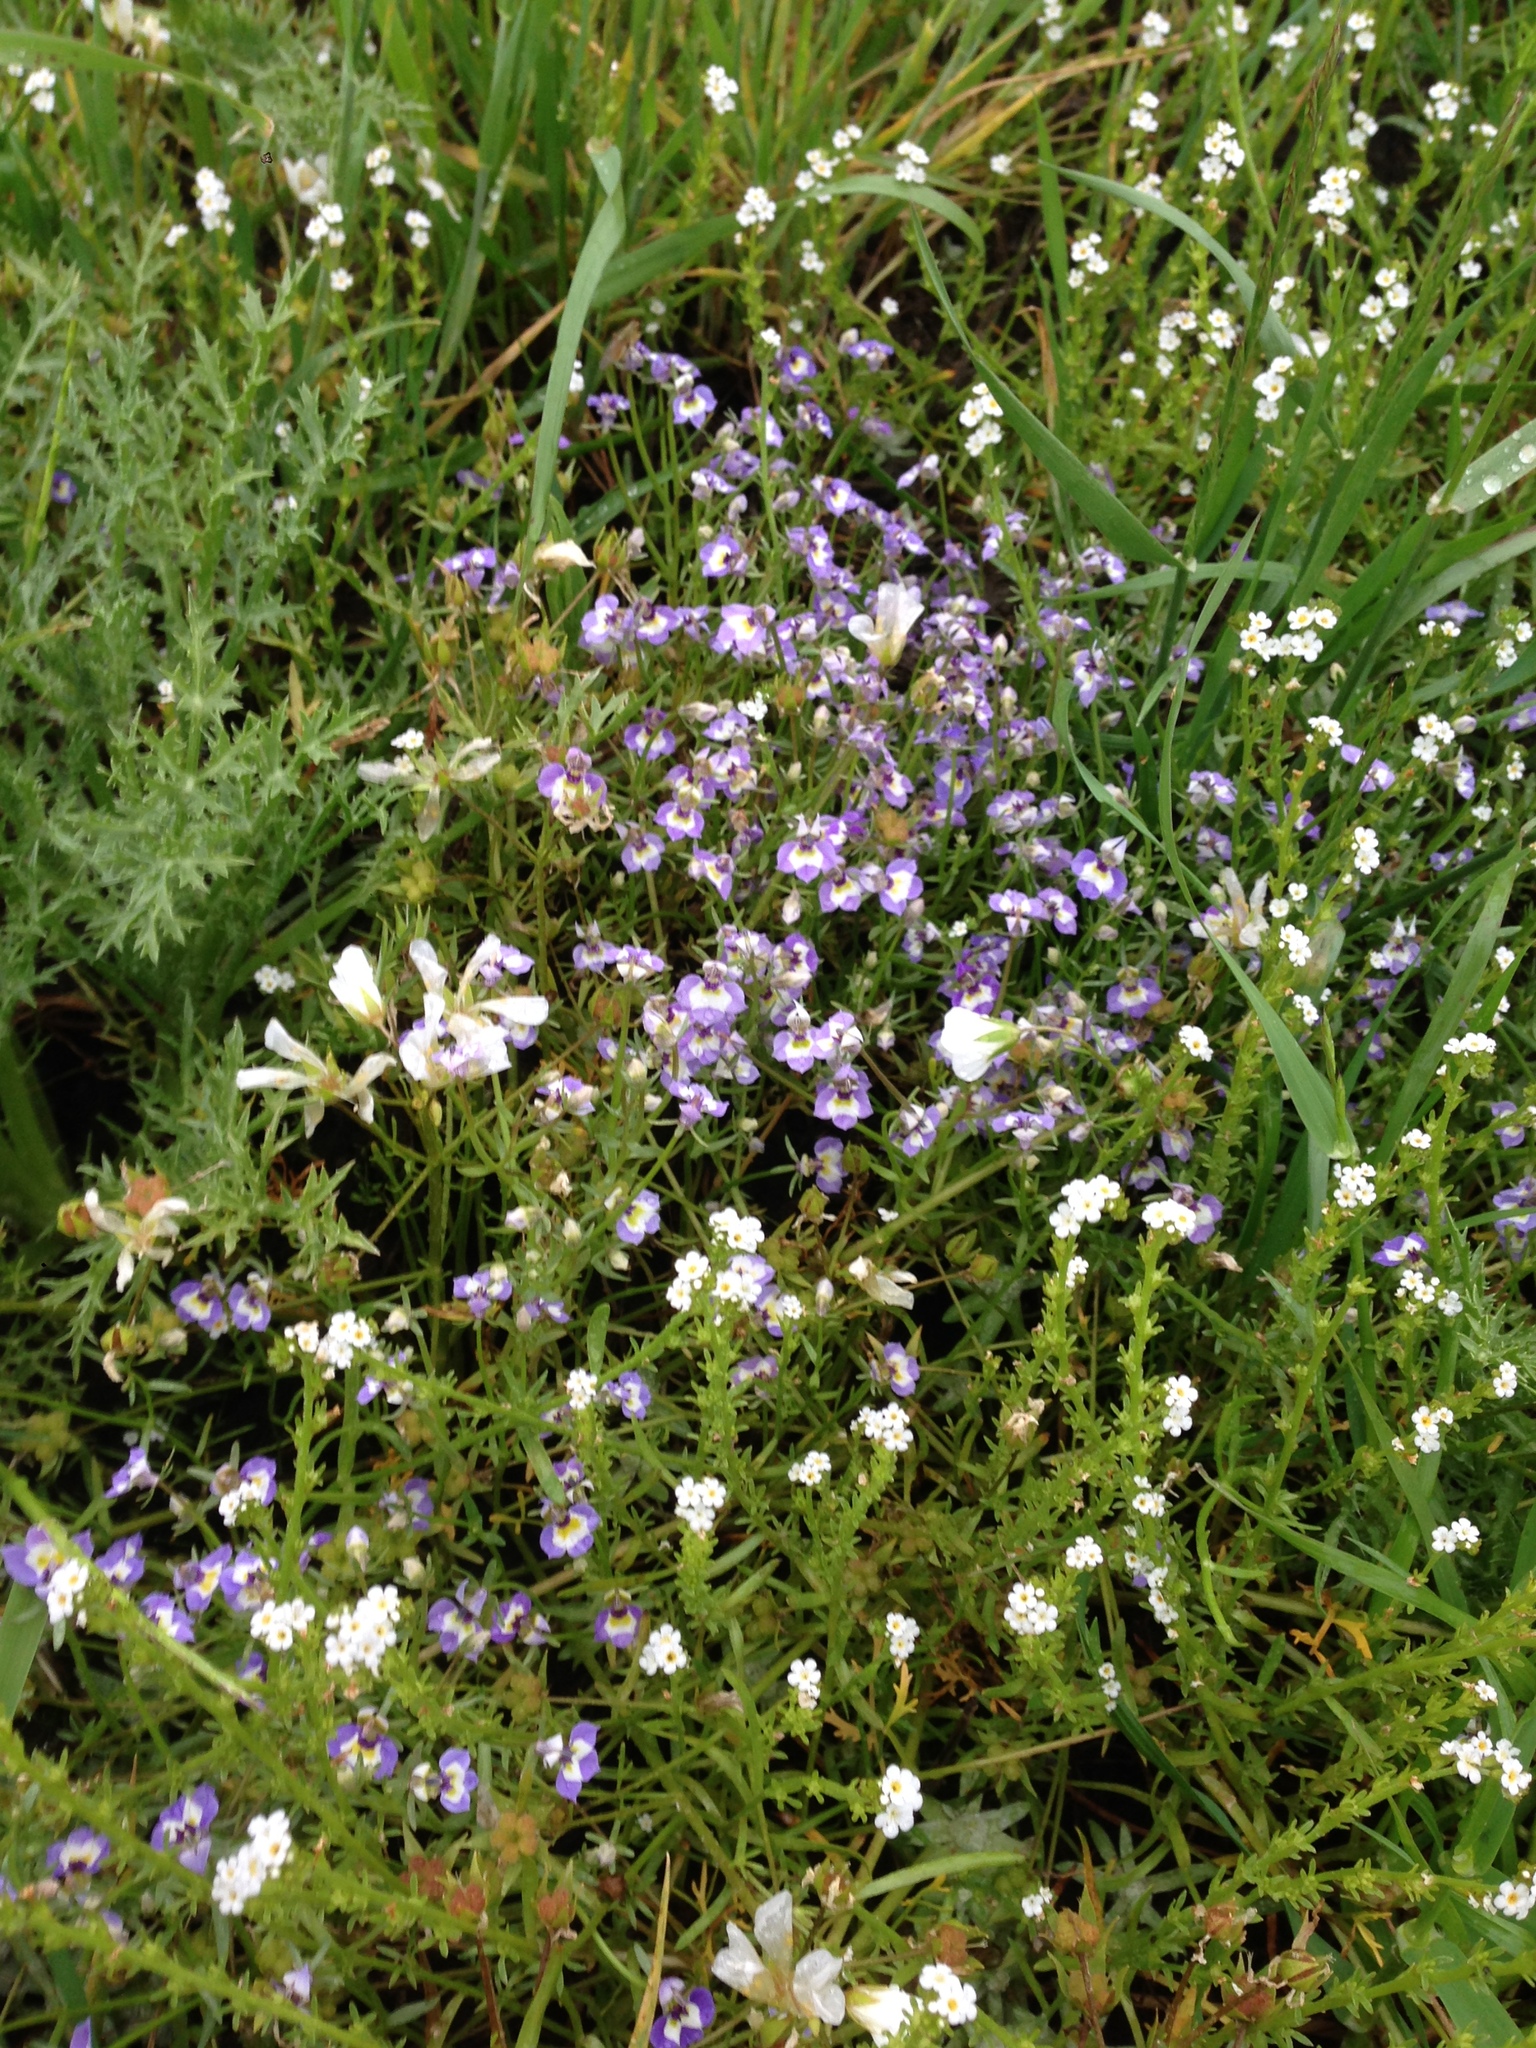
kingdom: Plantae
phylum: Tracheophyta
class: Magnoliopsida
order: Asterales
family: Campanulaceae
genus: Downingia
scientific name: Downingia bicornuta
